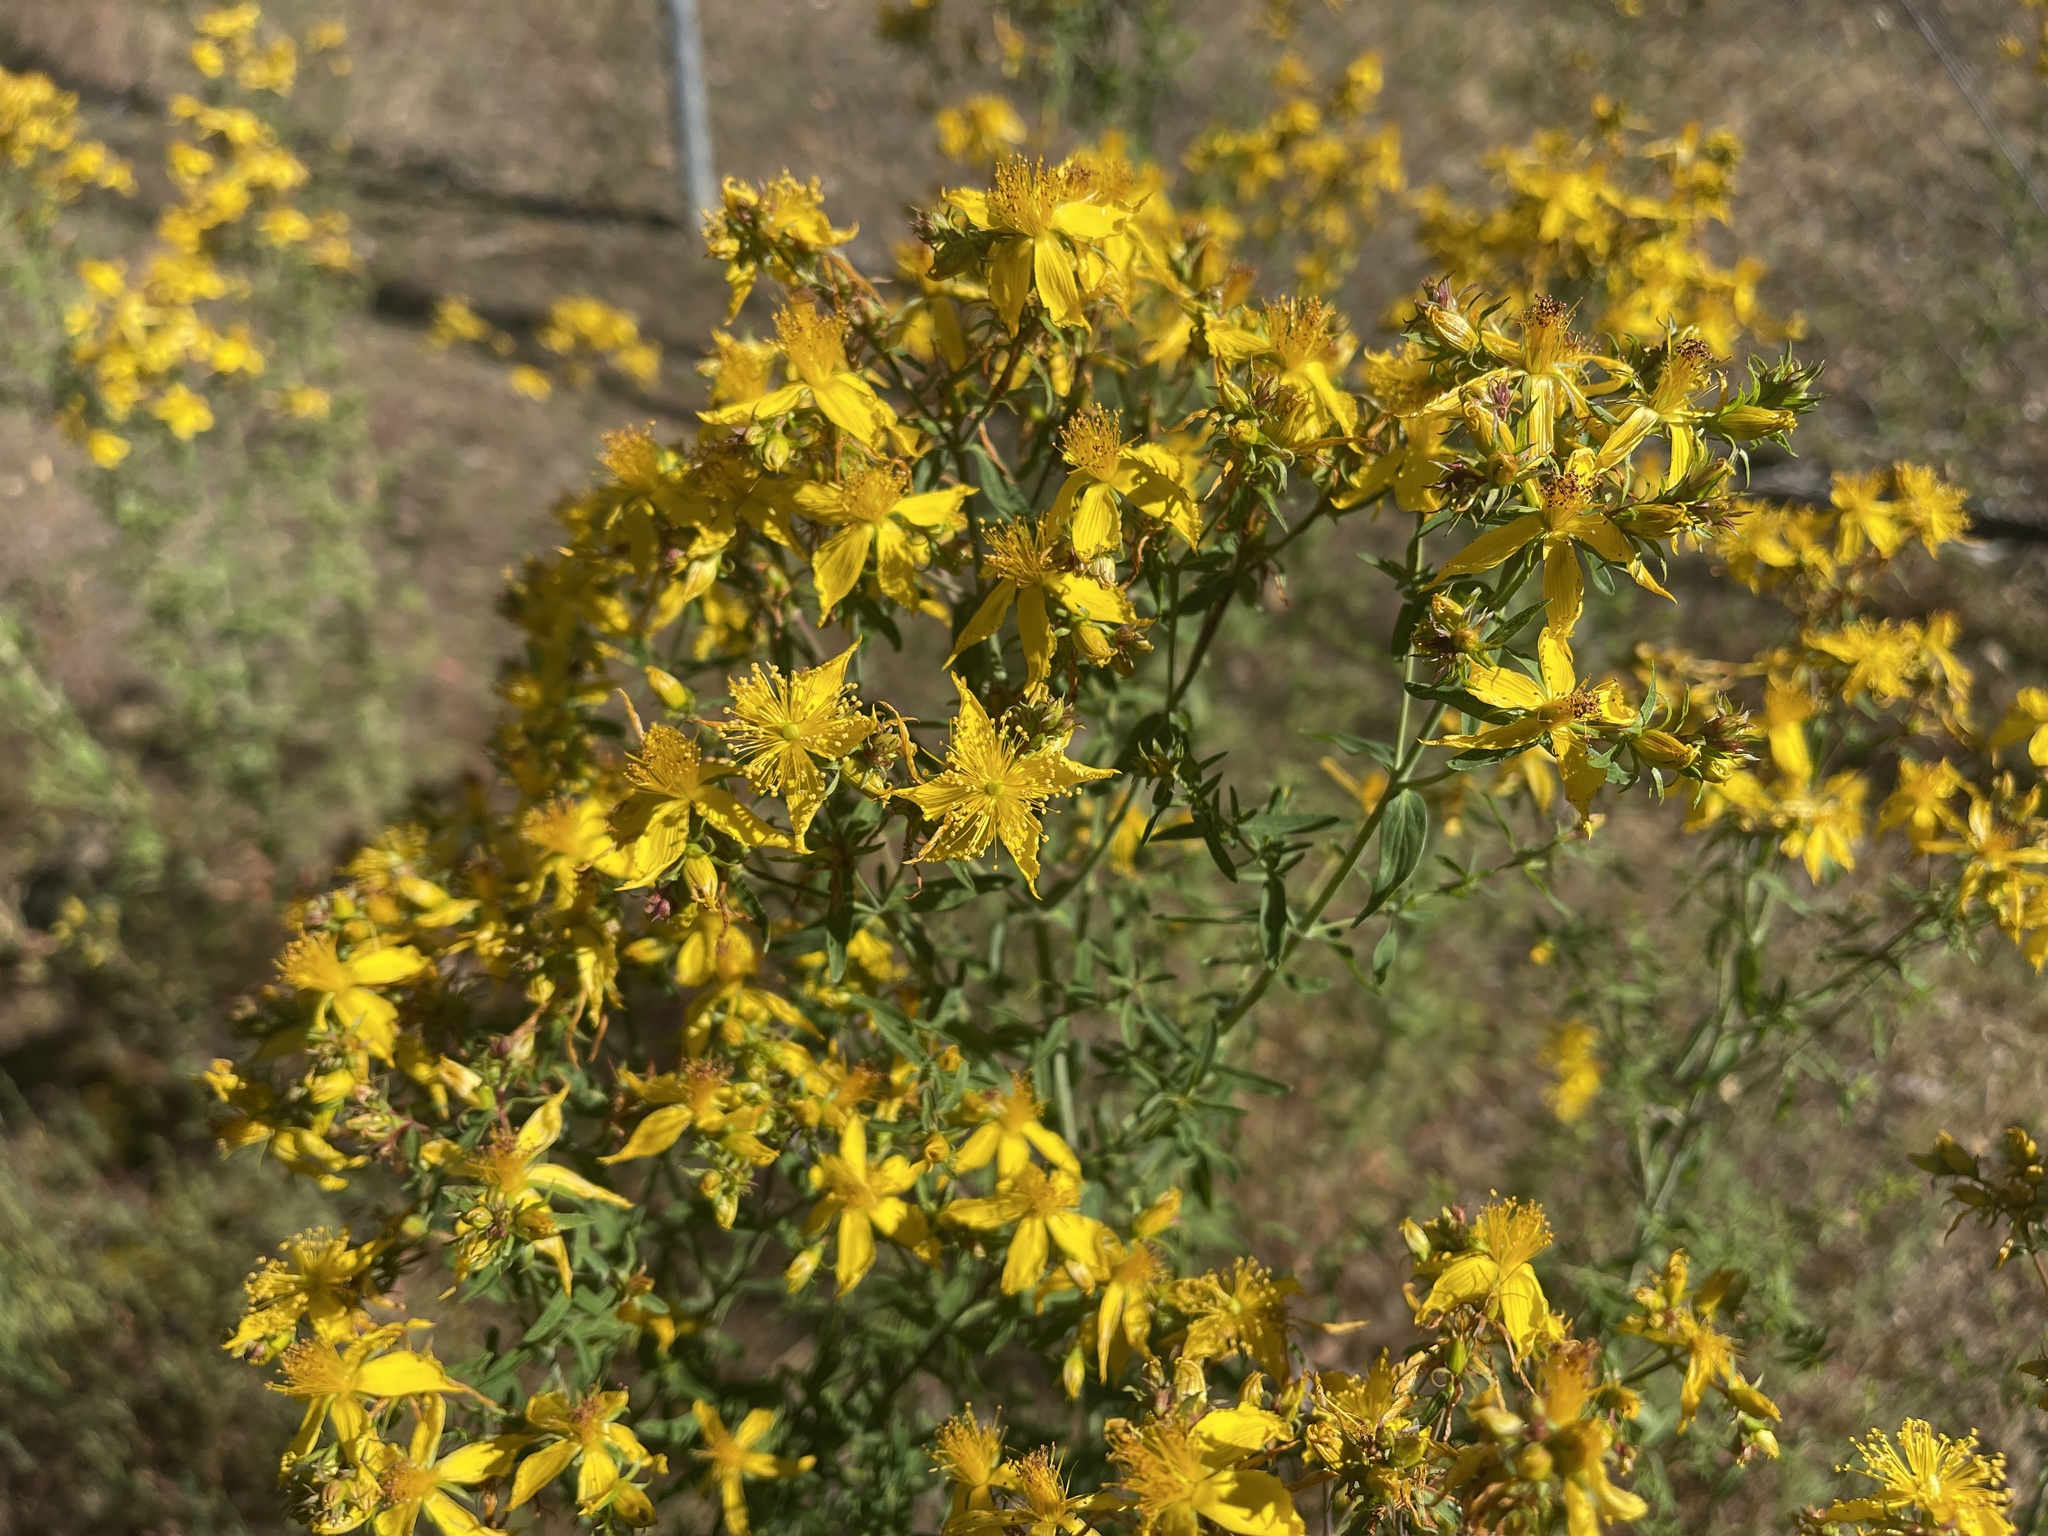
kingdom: Plantae
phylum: Tracheophyta
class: Magnoliopsida
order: Malpighiales
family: Hypericaceae
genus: Hypericum
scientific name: Hypericum perforatum
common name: Common st. johnswort
